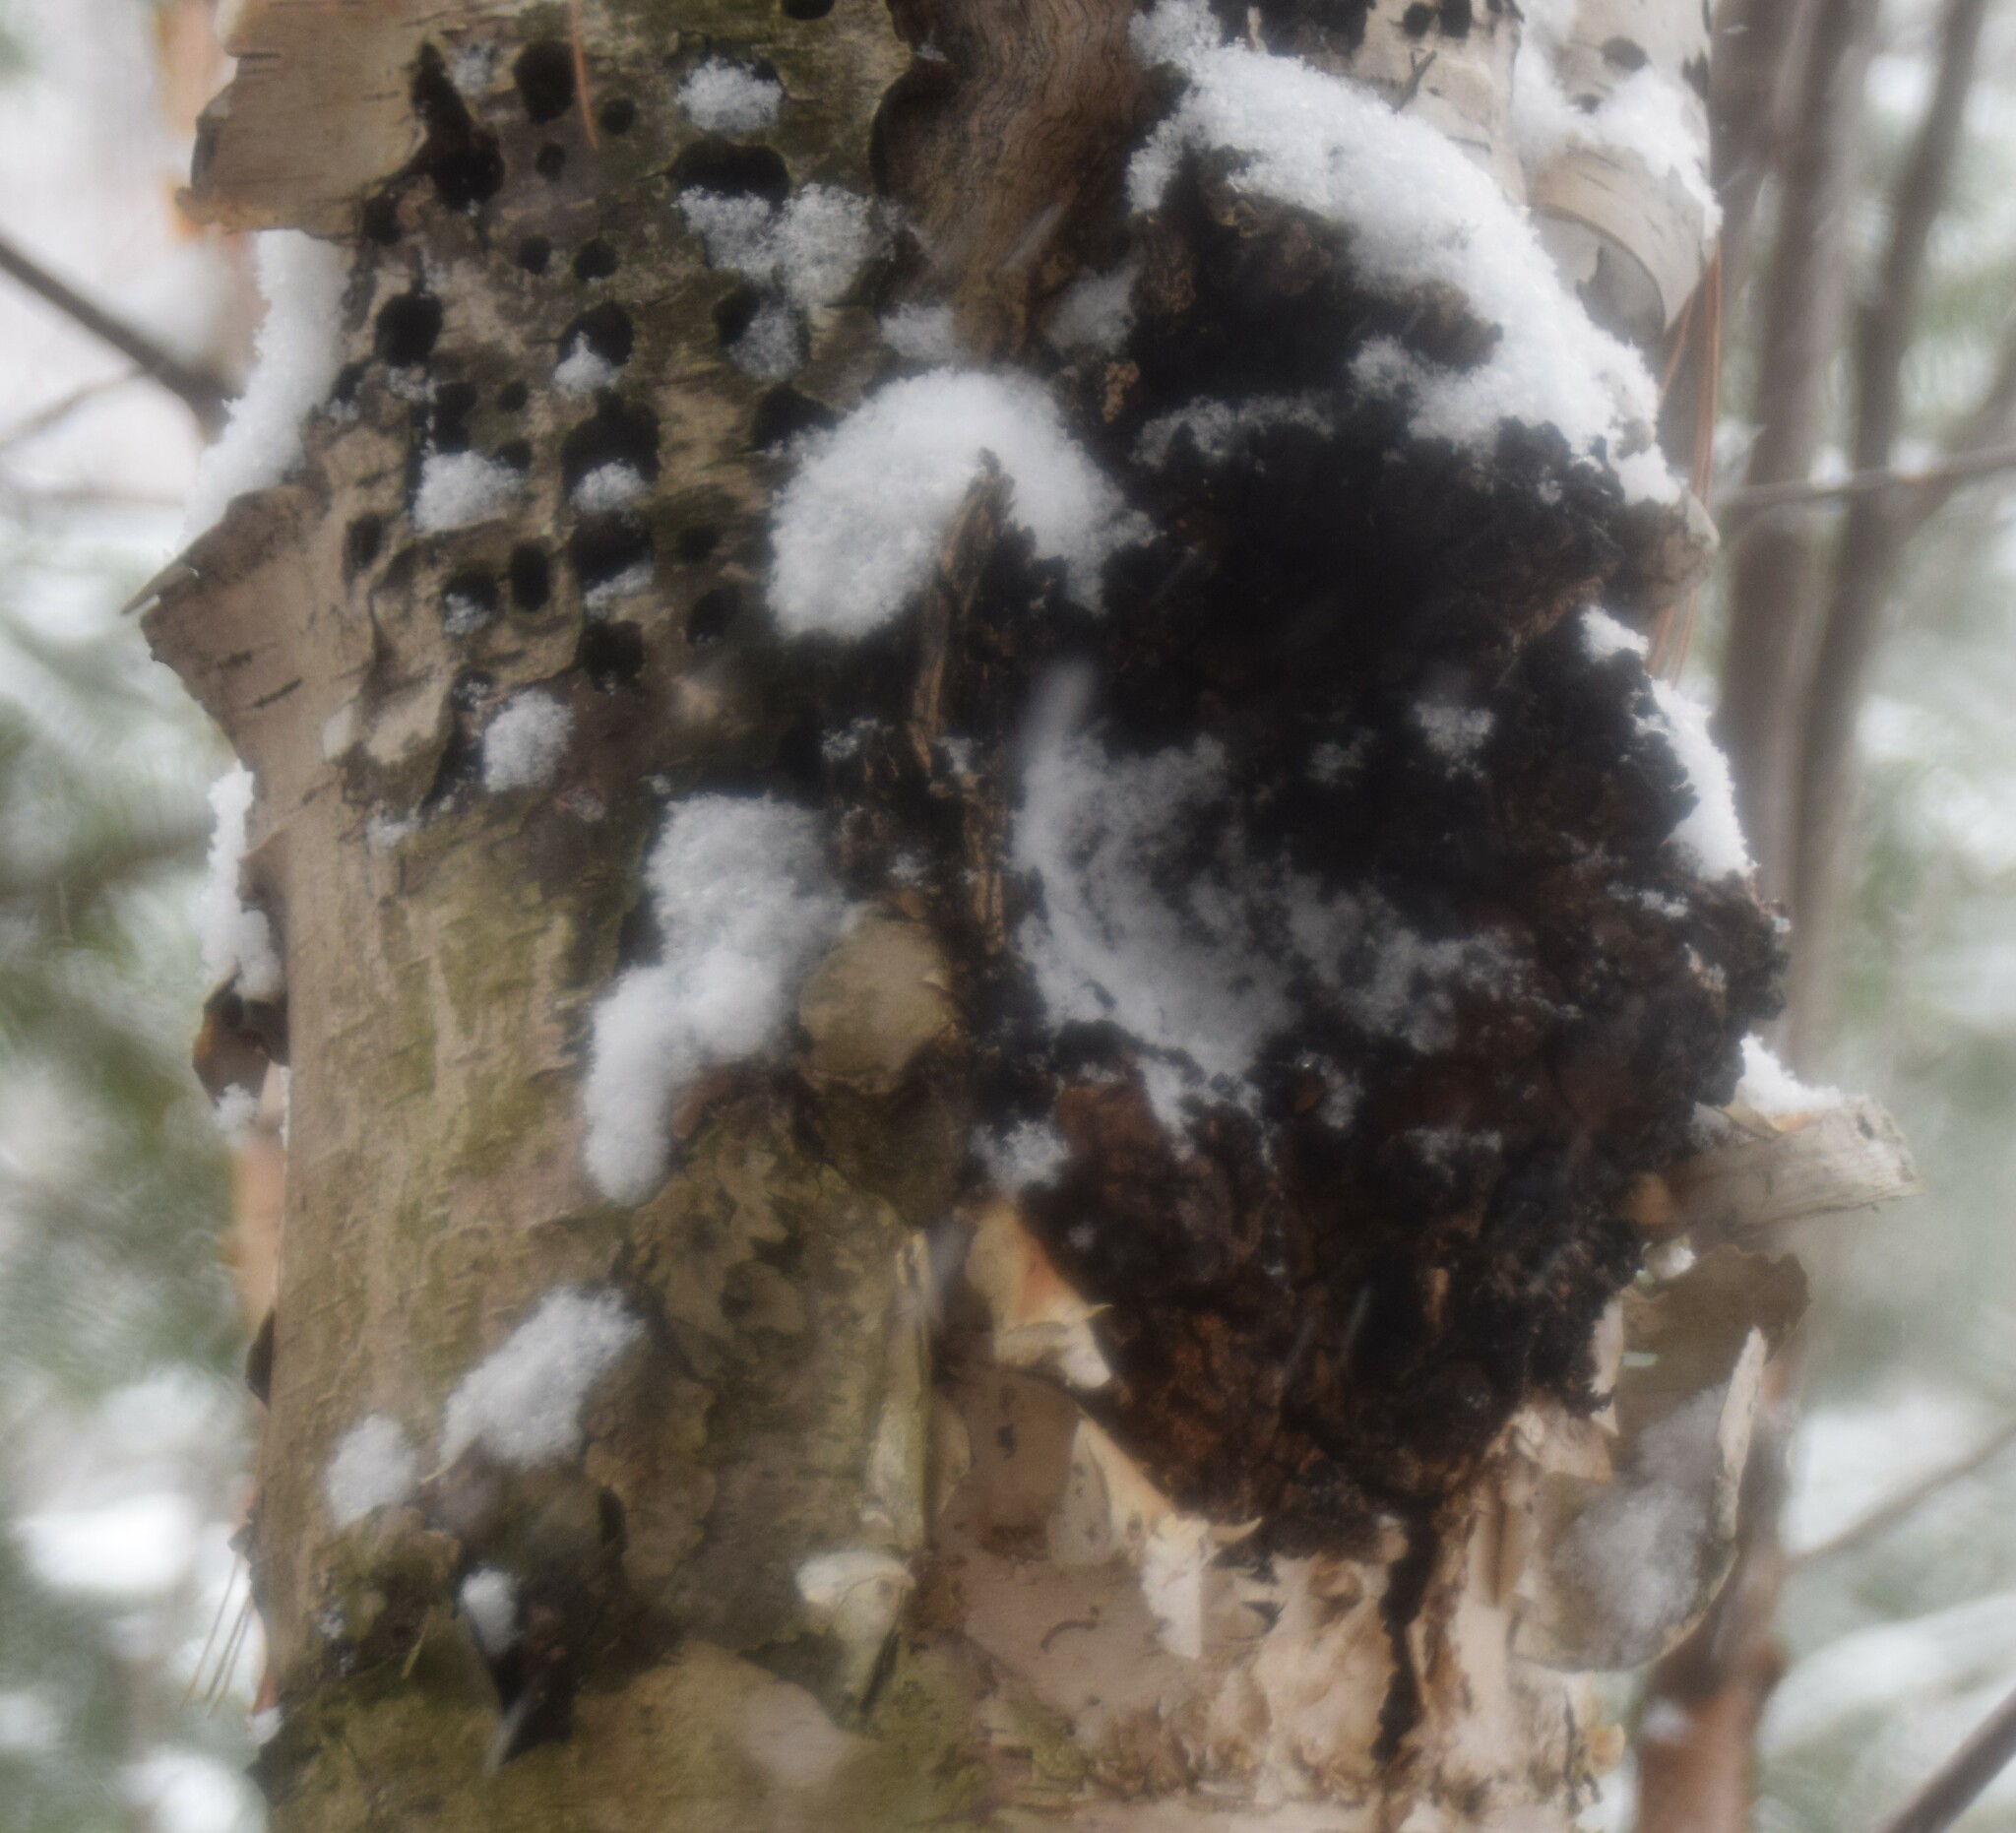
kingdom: Fungi
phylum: Basidiomycota
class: Agaricomycetes
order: Hymenochaetales
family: Hymenochaetaceae
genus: Inonotus
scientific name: Inonotus obliquus
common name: Chaga
